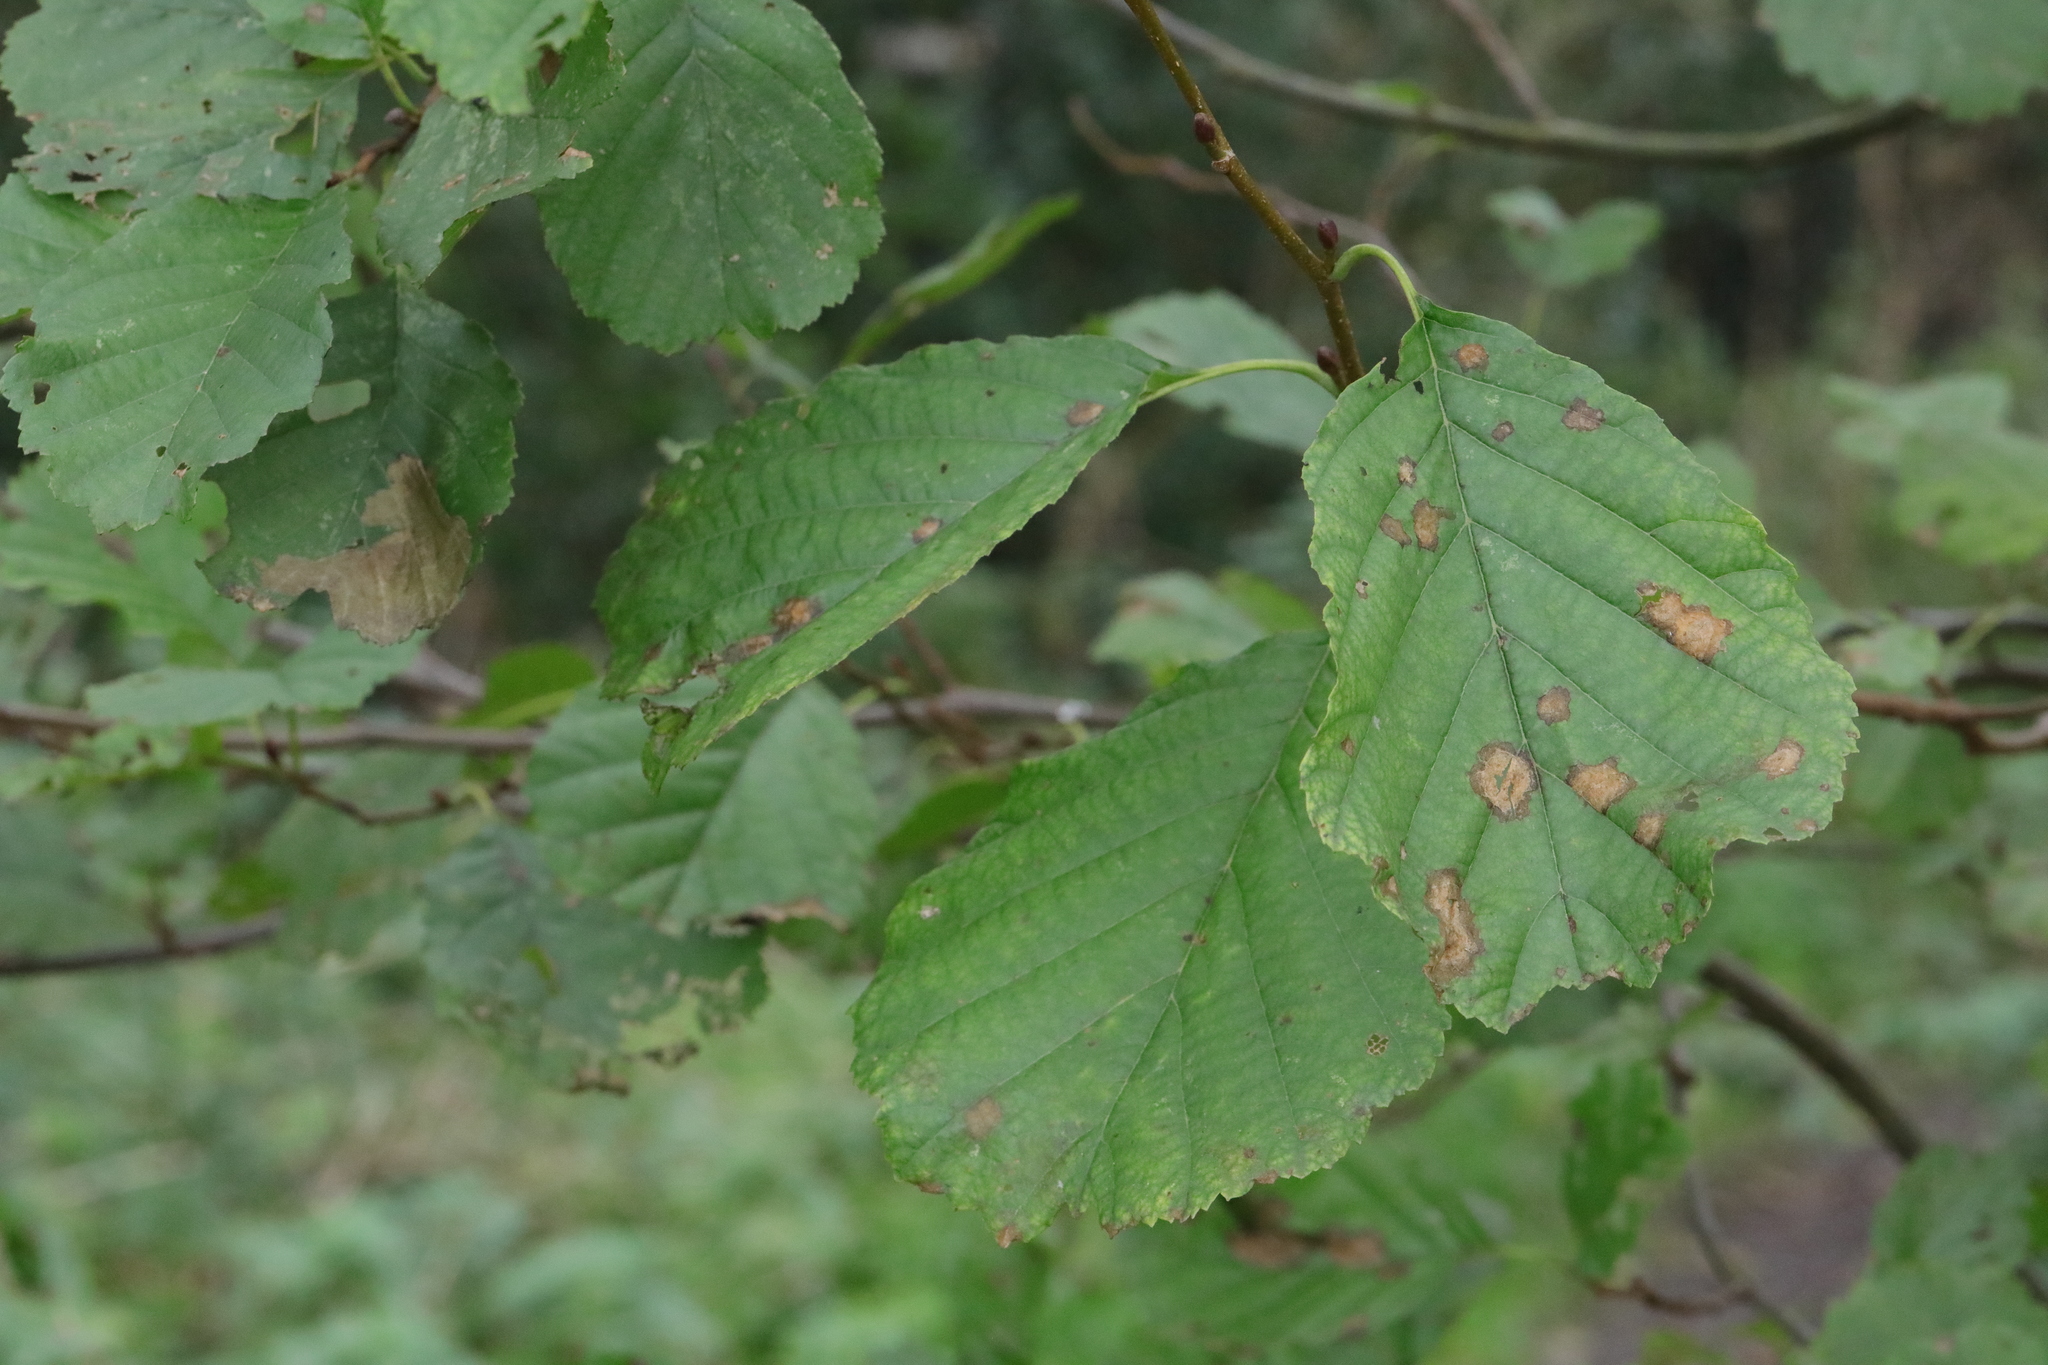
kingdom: Plantae
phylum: Tracheophyta
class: Magnoliopsida
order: Fagales
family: Betulaceae
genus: Alnus
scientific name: Alnus glutinosa
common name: Black alder
